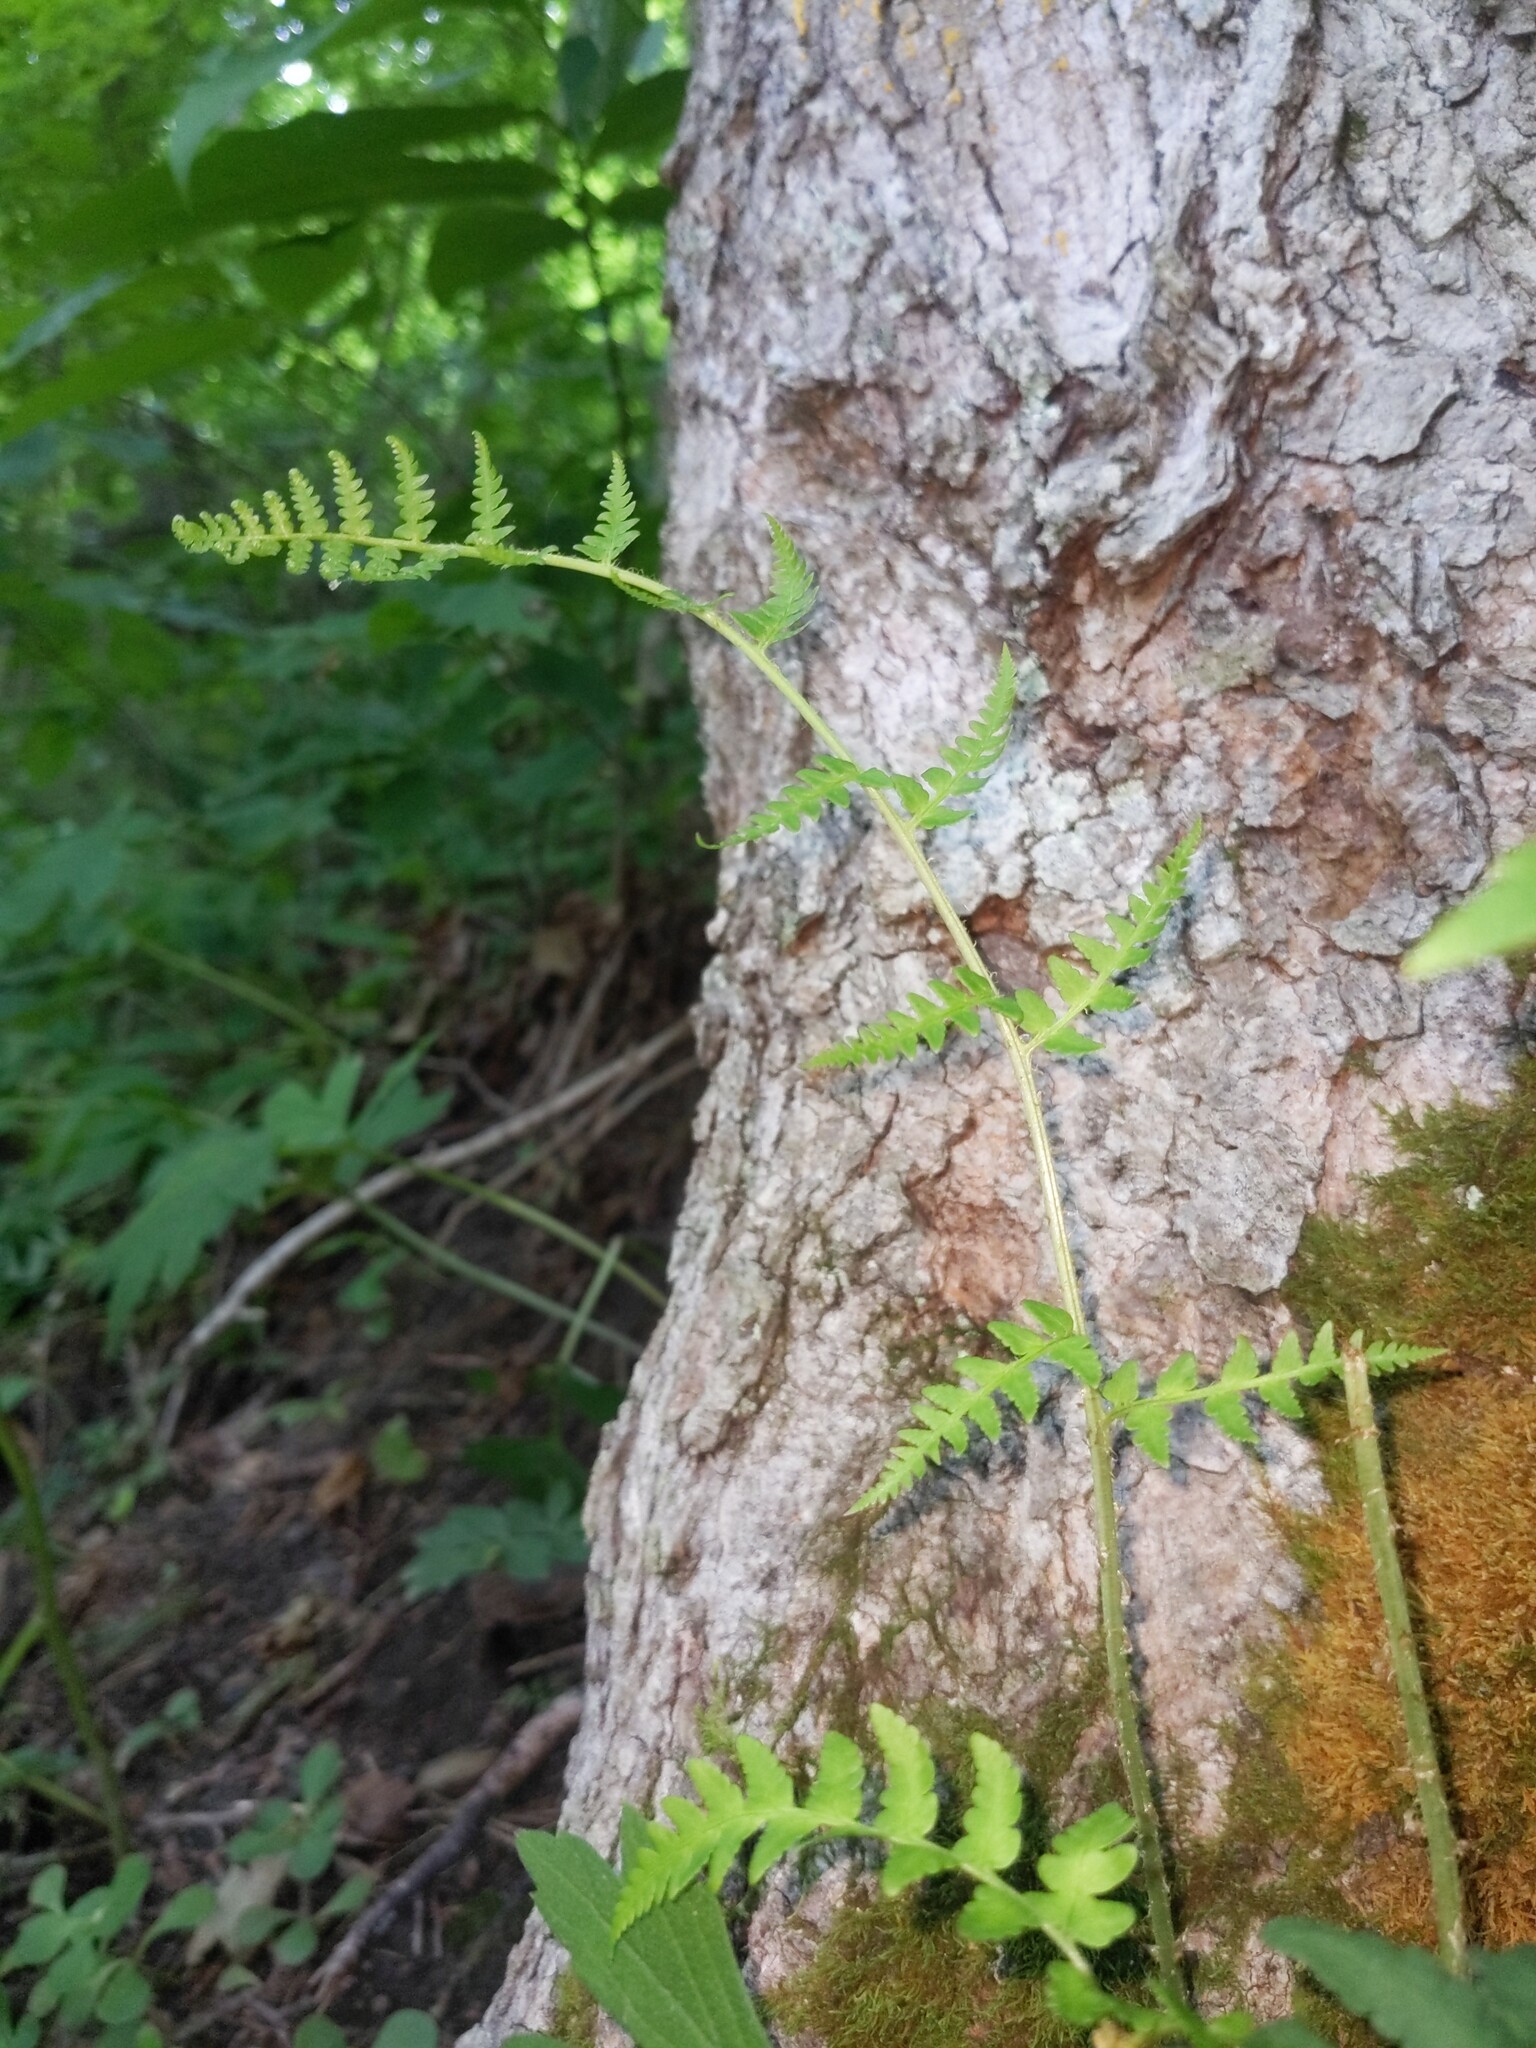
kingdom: Plantae
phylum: Tracheophyta
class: Polypodiopsida
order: Polypodiales
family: Dryopteridaceae
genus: Dryopteris
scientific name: Dryopteris marginalis
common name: Marginal wood fern
